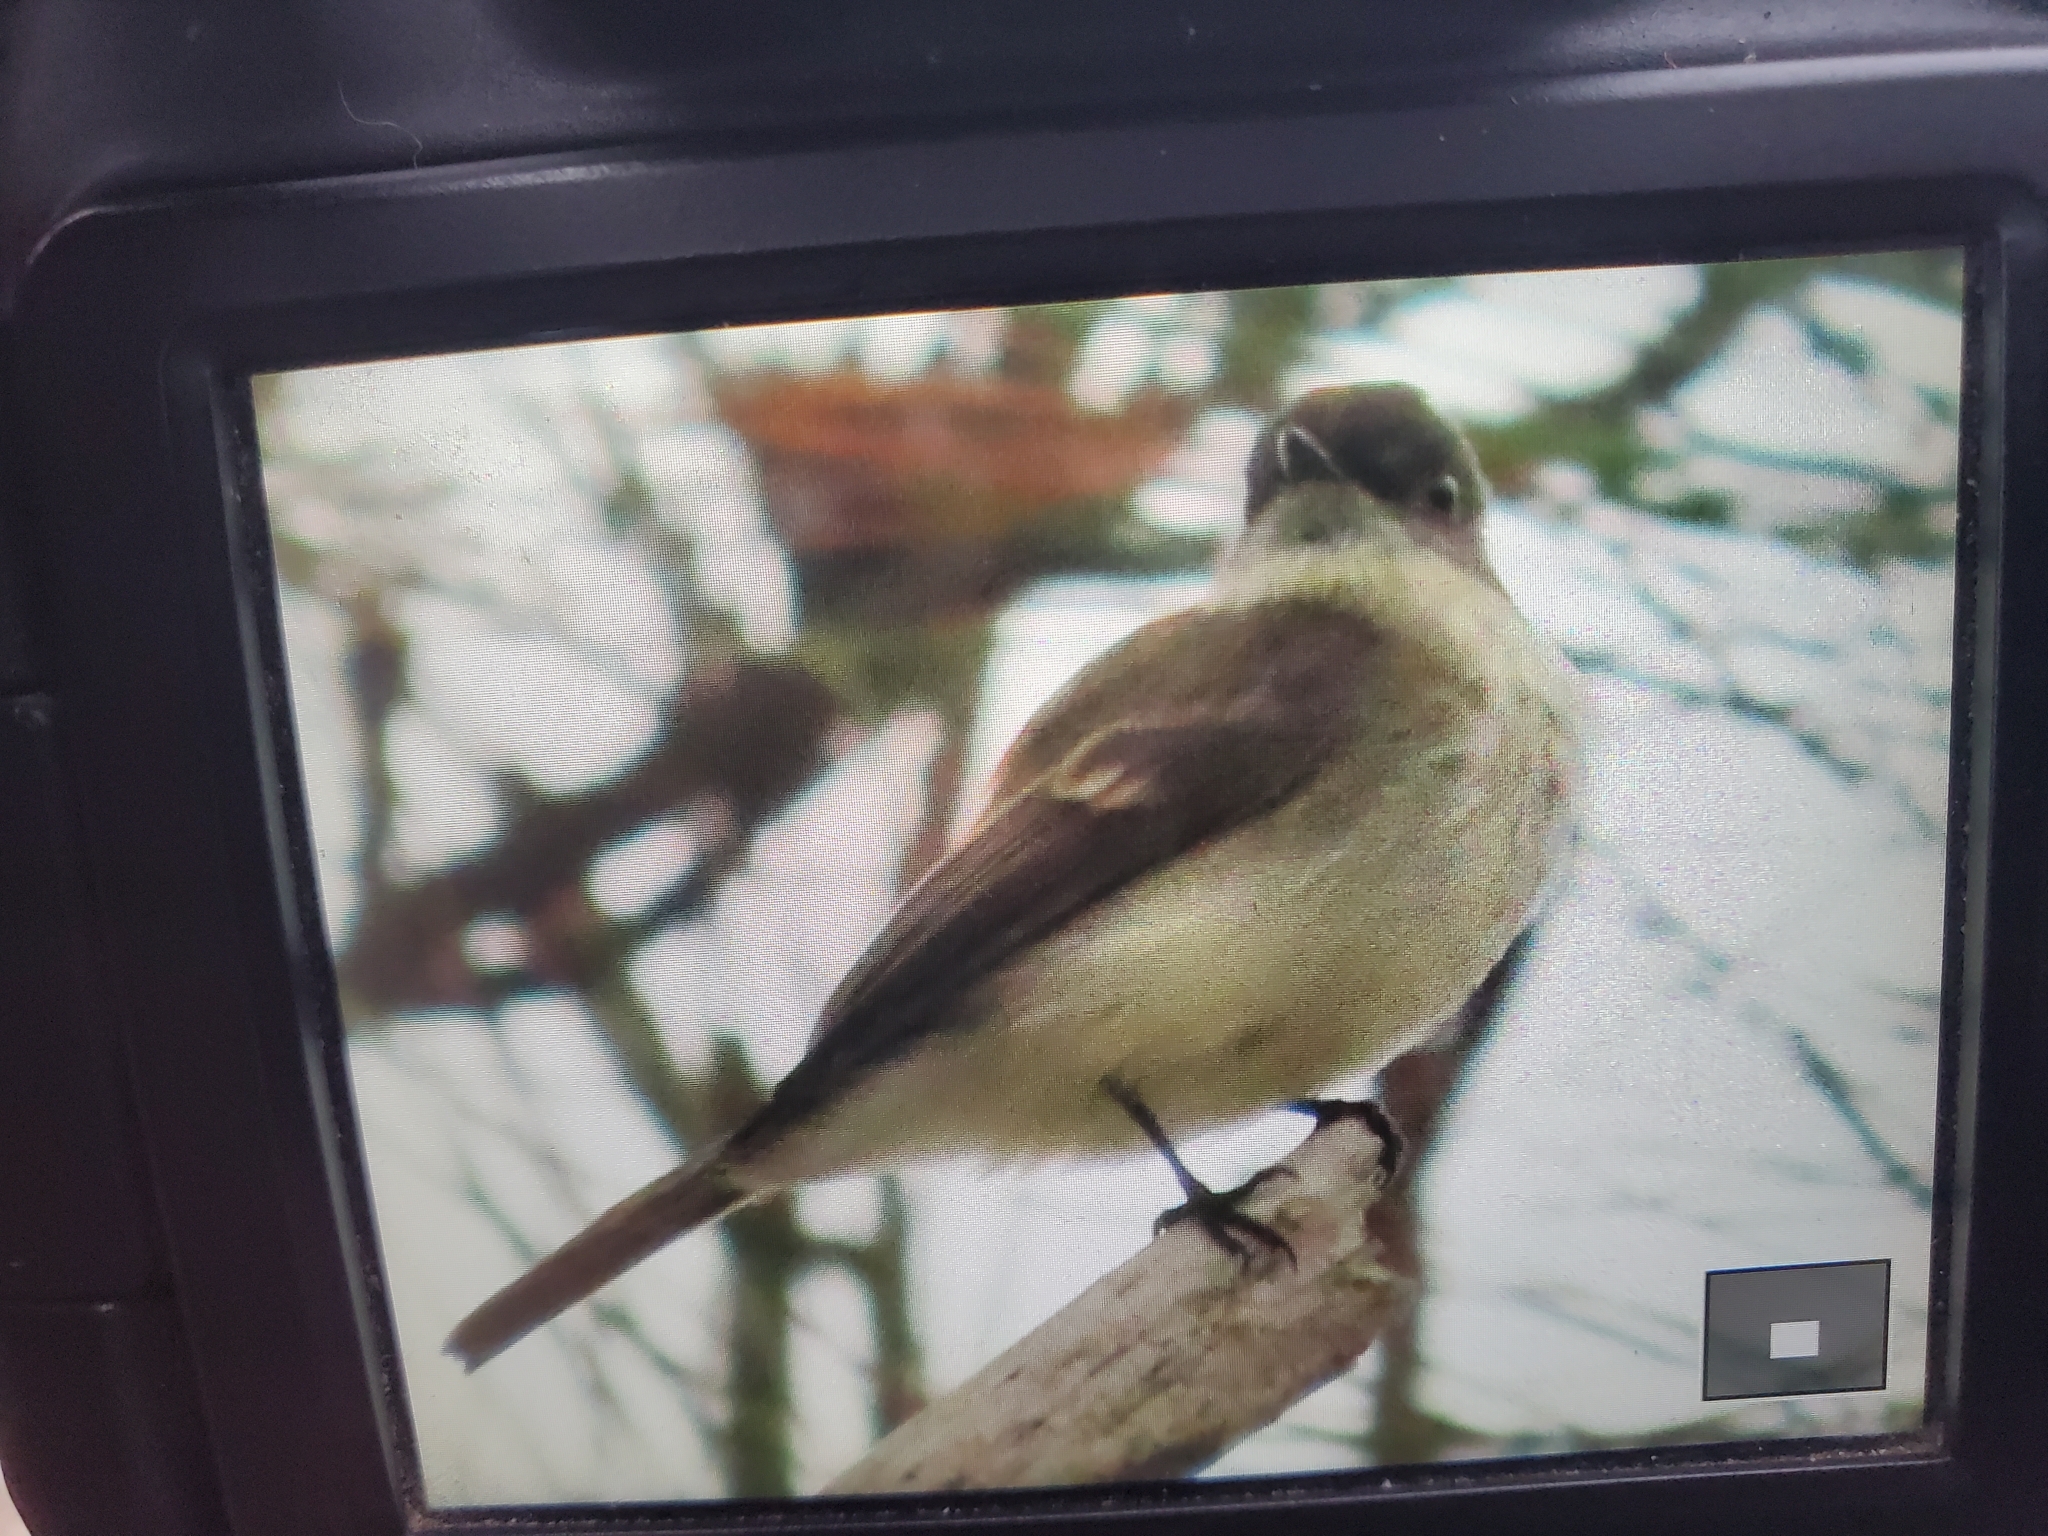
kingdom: Animalia
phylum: Chordata
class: Aves
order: Passeriformes
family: Tyrannidae
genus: Sayornis
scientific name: Sayornis phoebe
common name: Eastern phoebe
